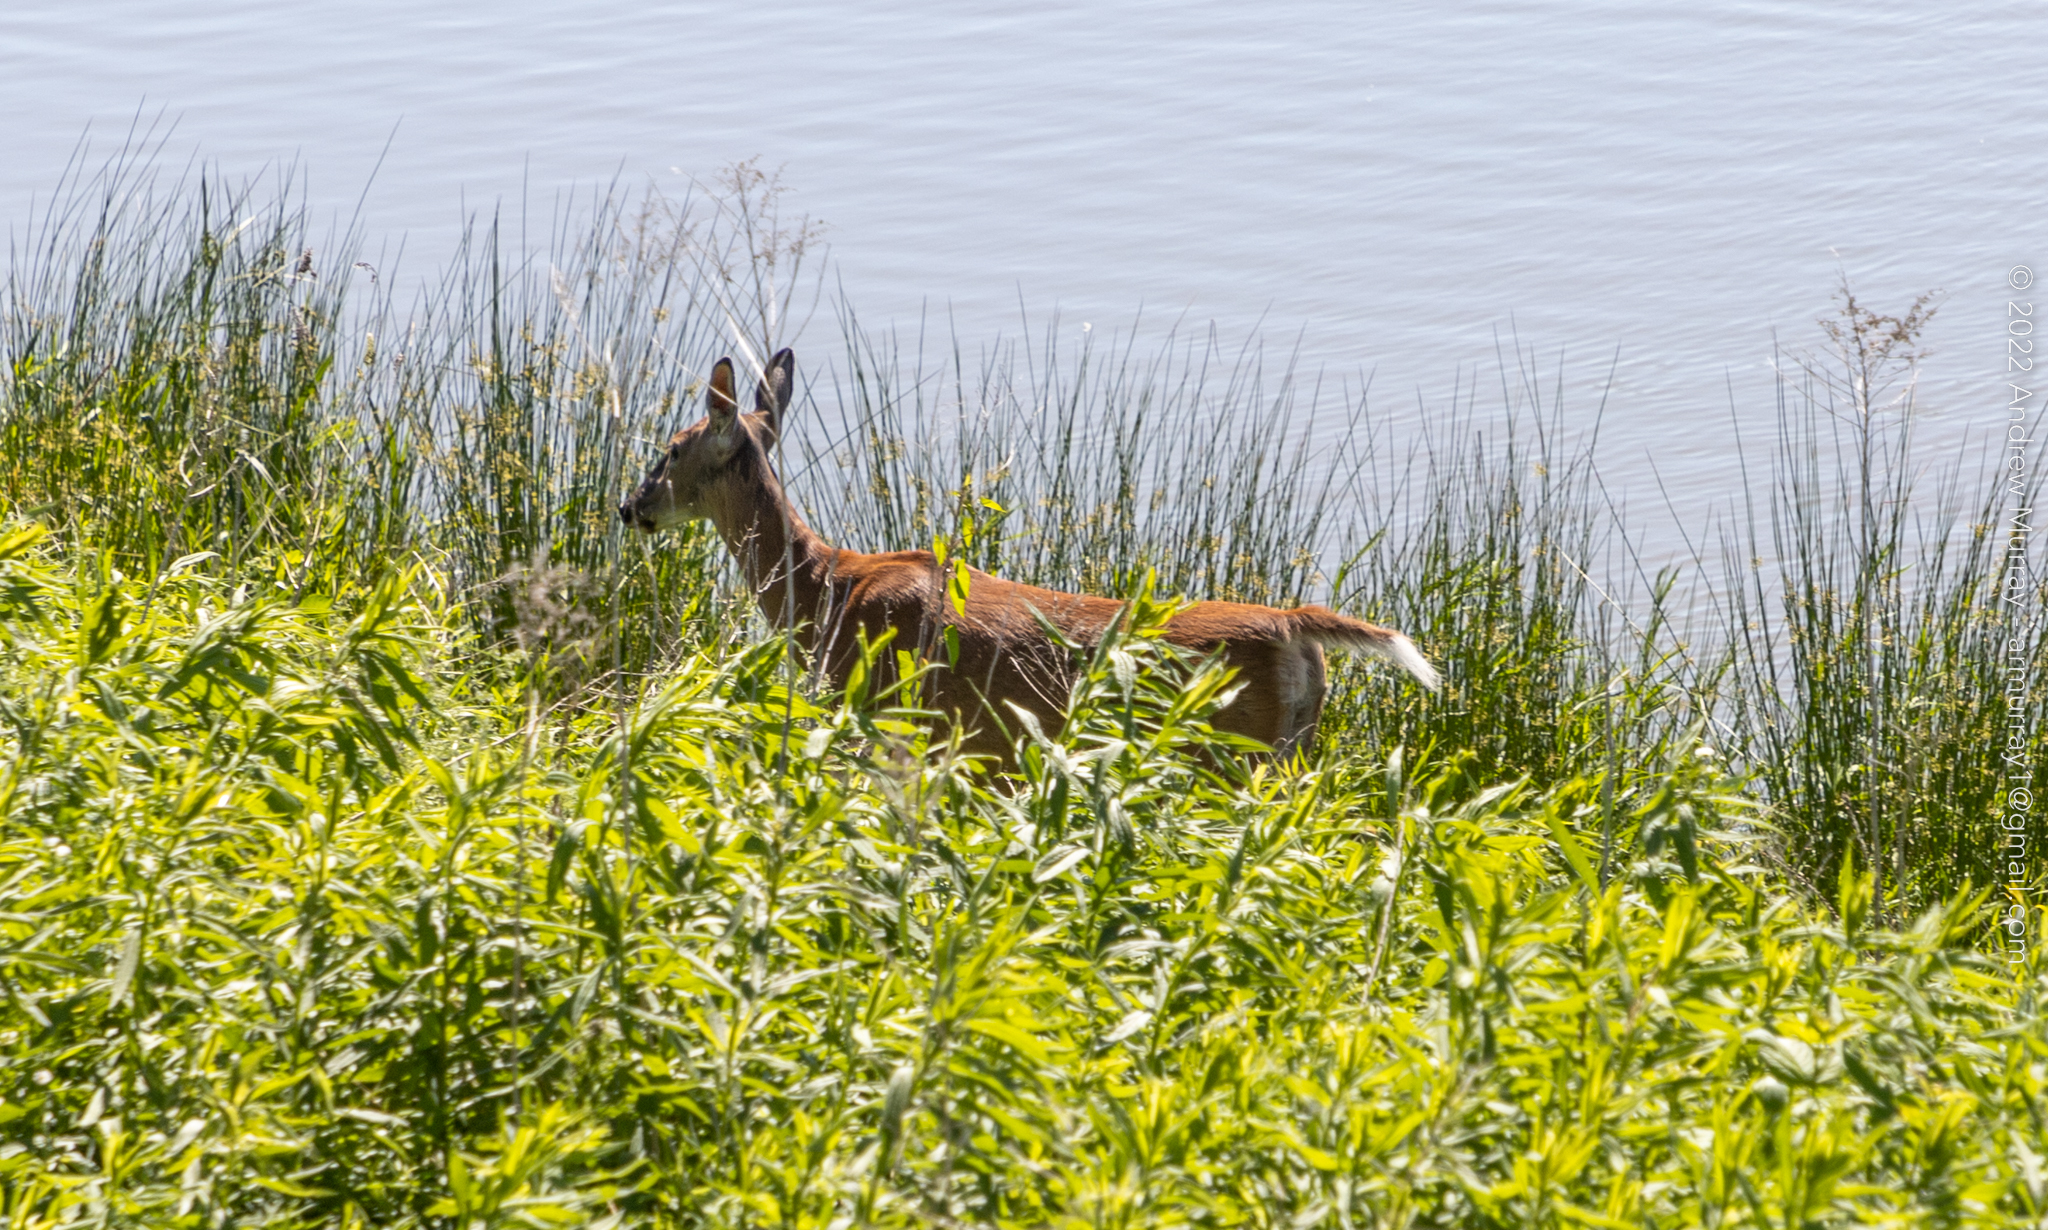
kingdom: Animalia
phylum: Chordata
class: Mammalia
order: Artiodactyla
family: Cervidae
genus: Odocoileus
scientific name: Odocoileus virginianus
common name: White-tailed deer
